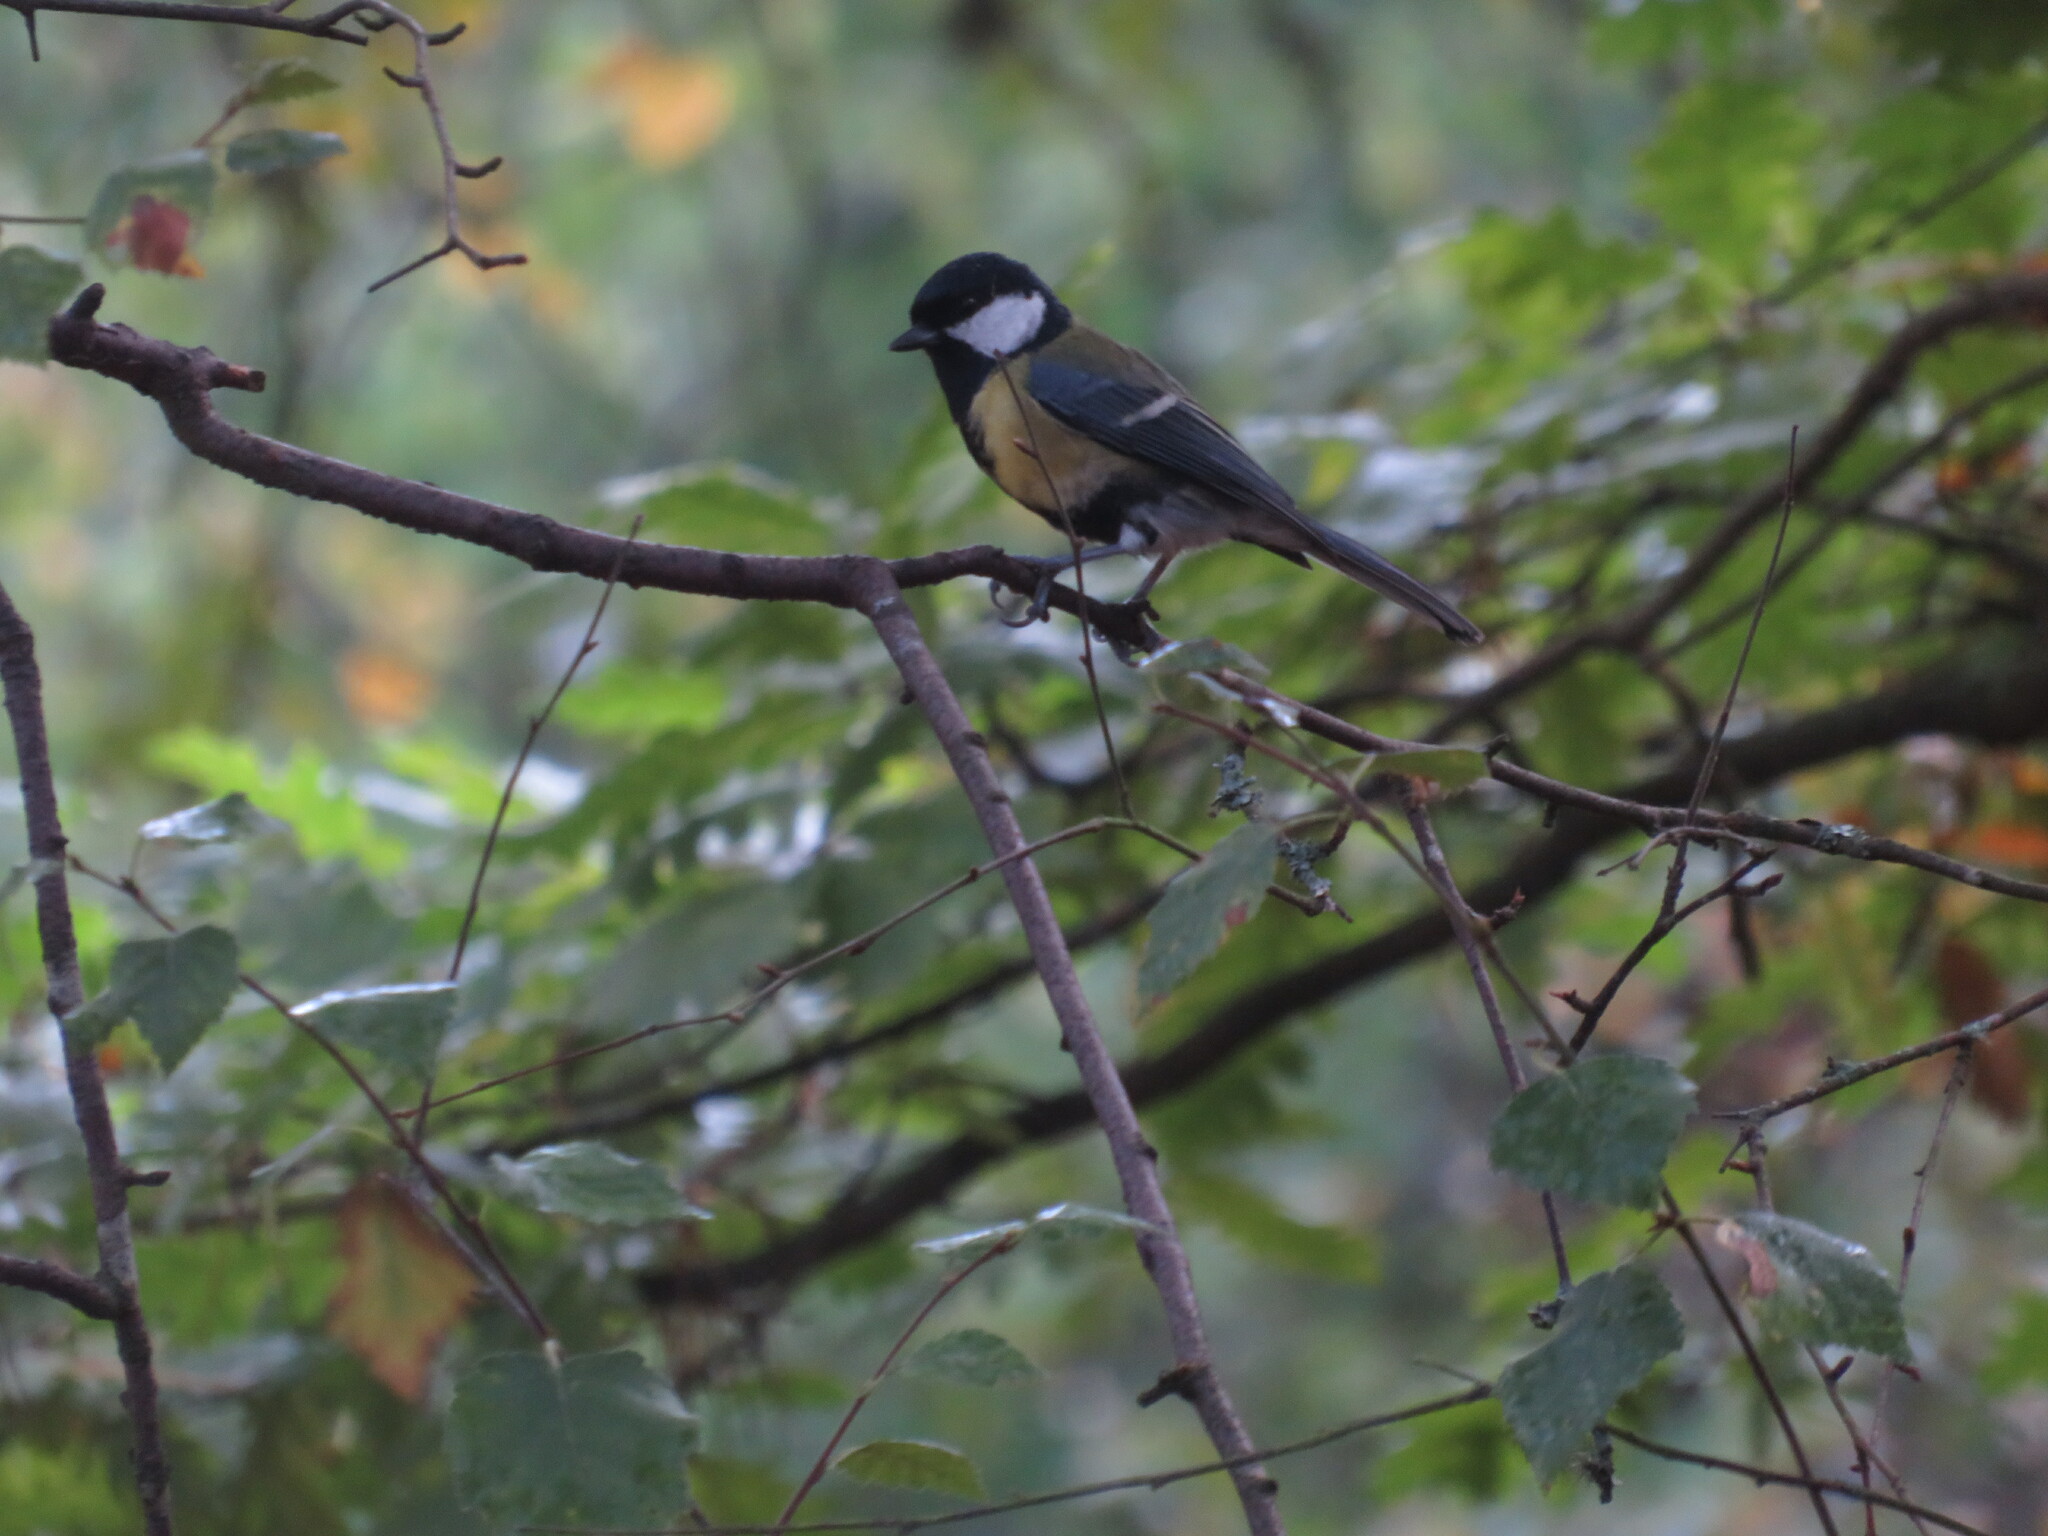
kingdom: Animalia
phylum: Chordata
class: Aves
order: Passeriformes
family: Paridae
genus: Parus
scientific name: Parus major
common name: Great tit
